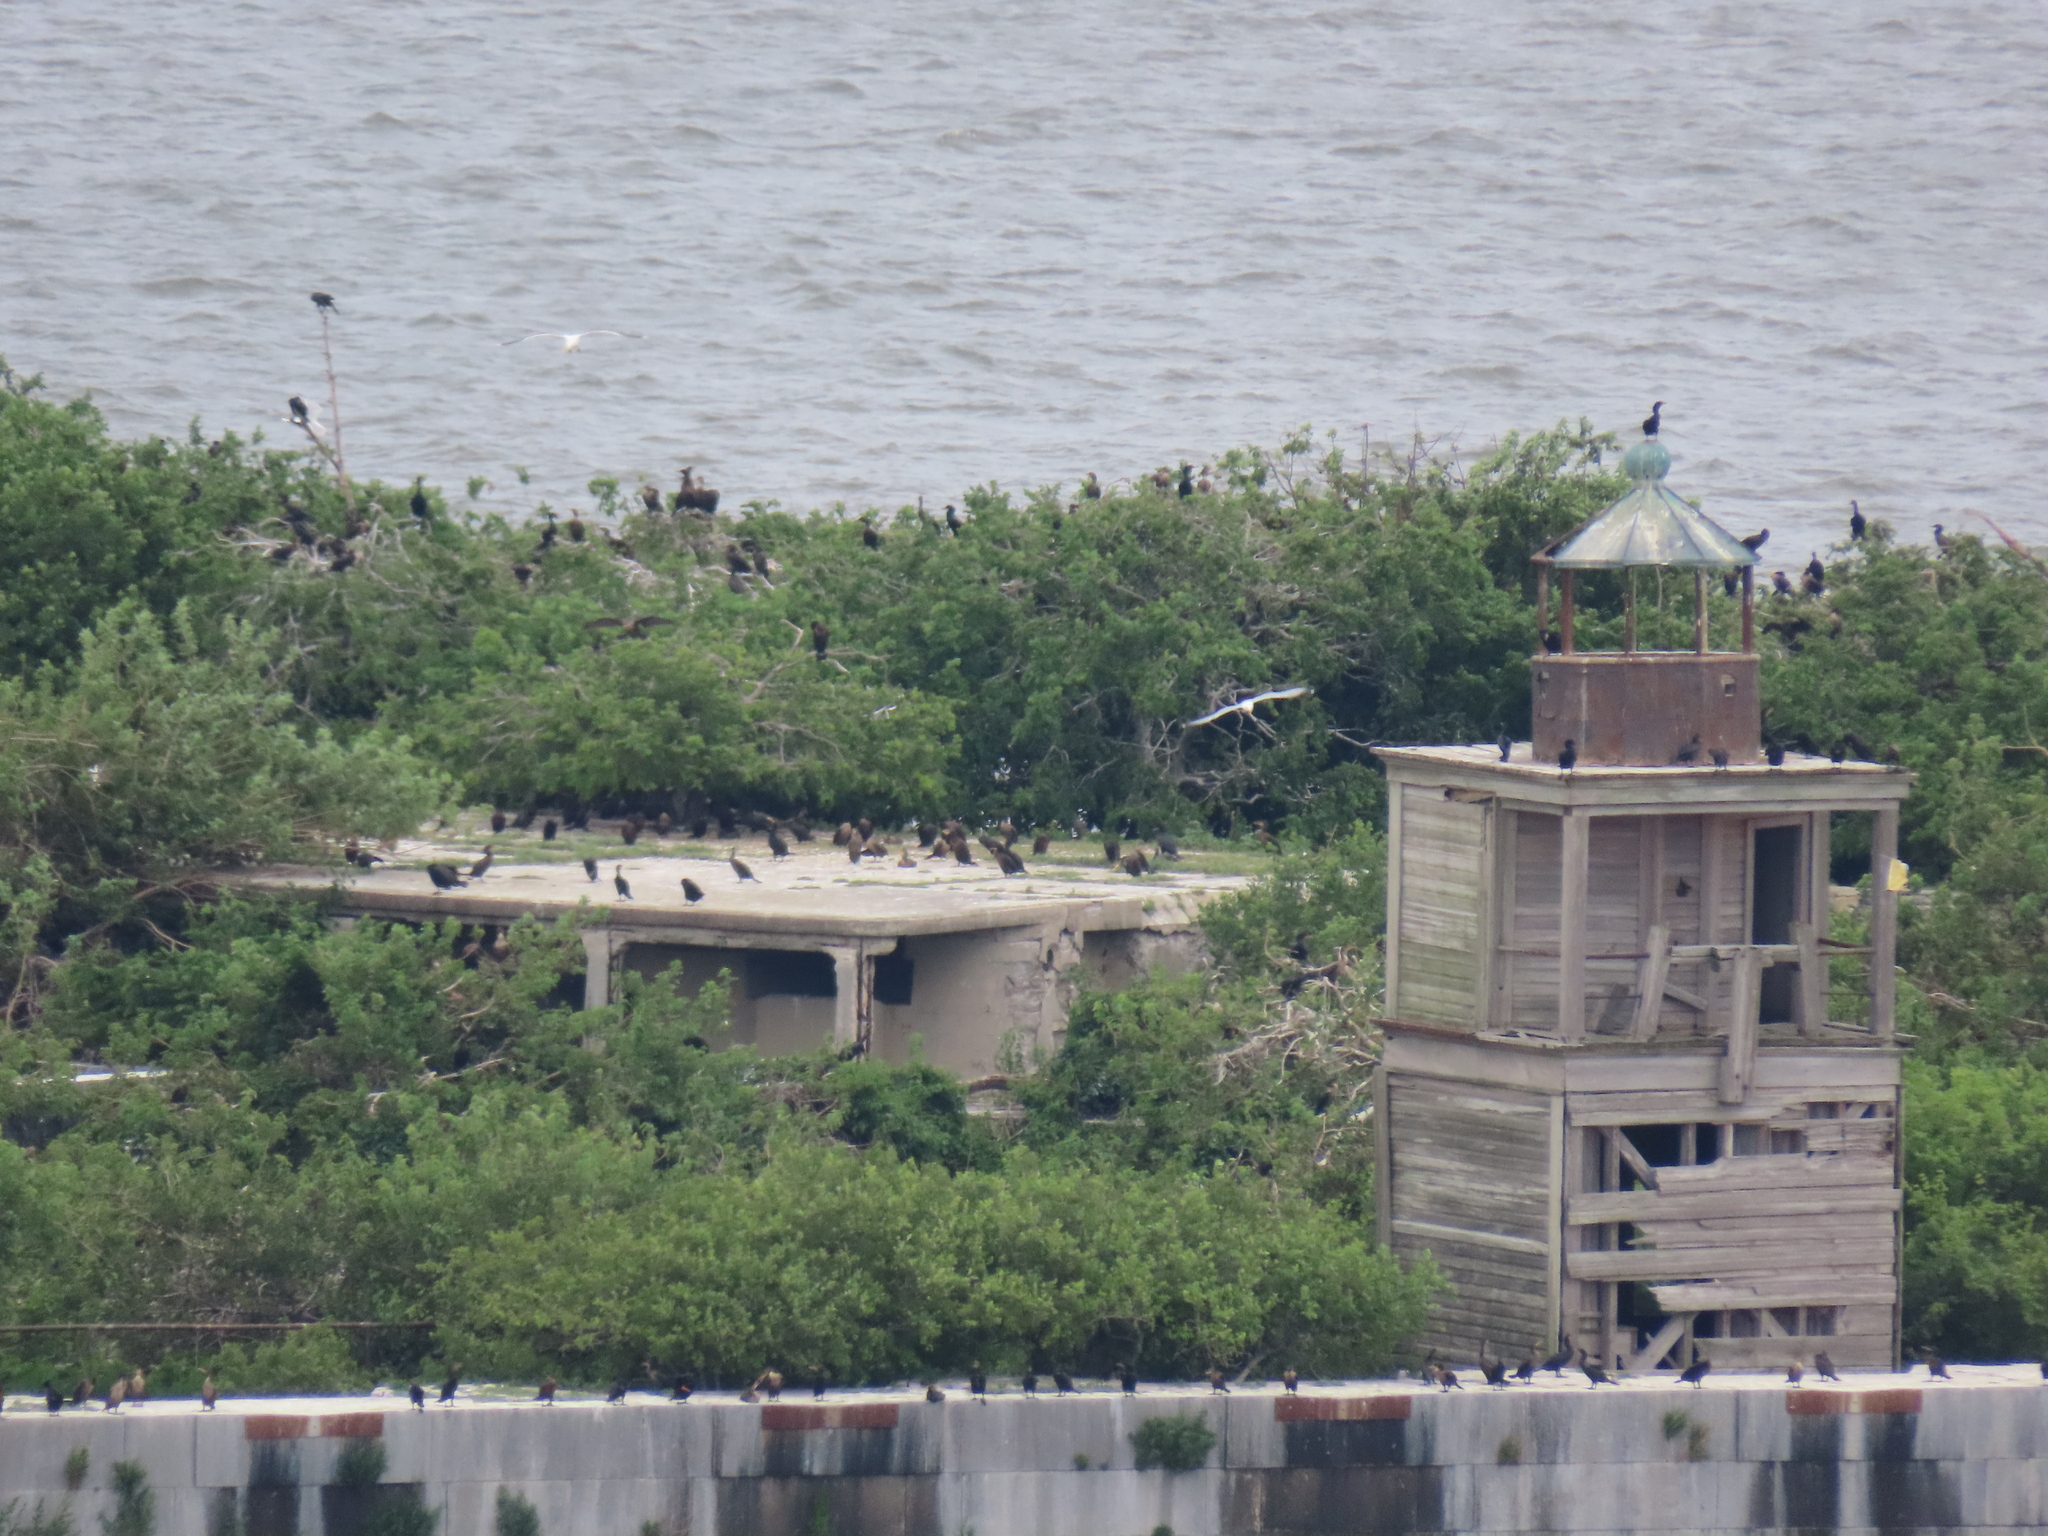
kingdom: Animalia
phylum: Chordata
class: Aves
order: Suliformes
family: Phalacrocoracidae
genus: Phalacrocorax
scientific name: Phalacrocorax auritus
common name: Double-crested cormorant
